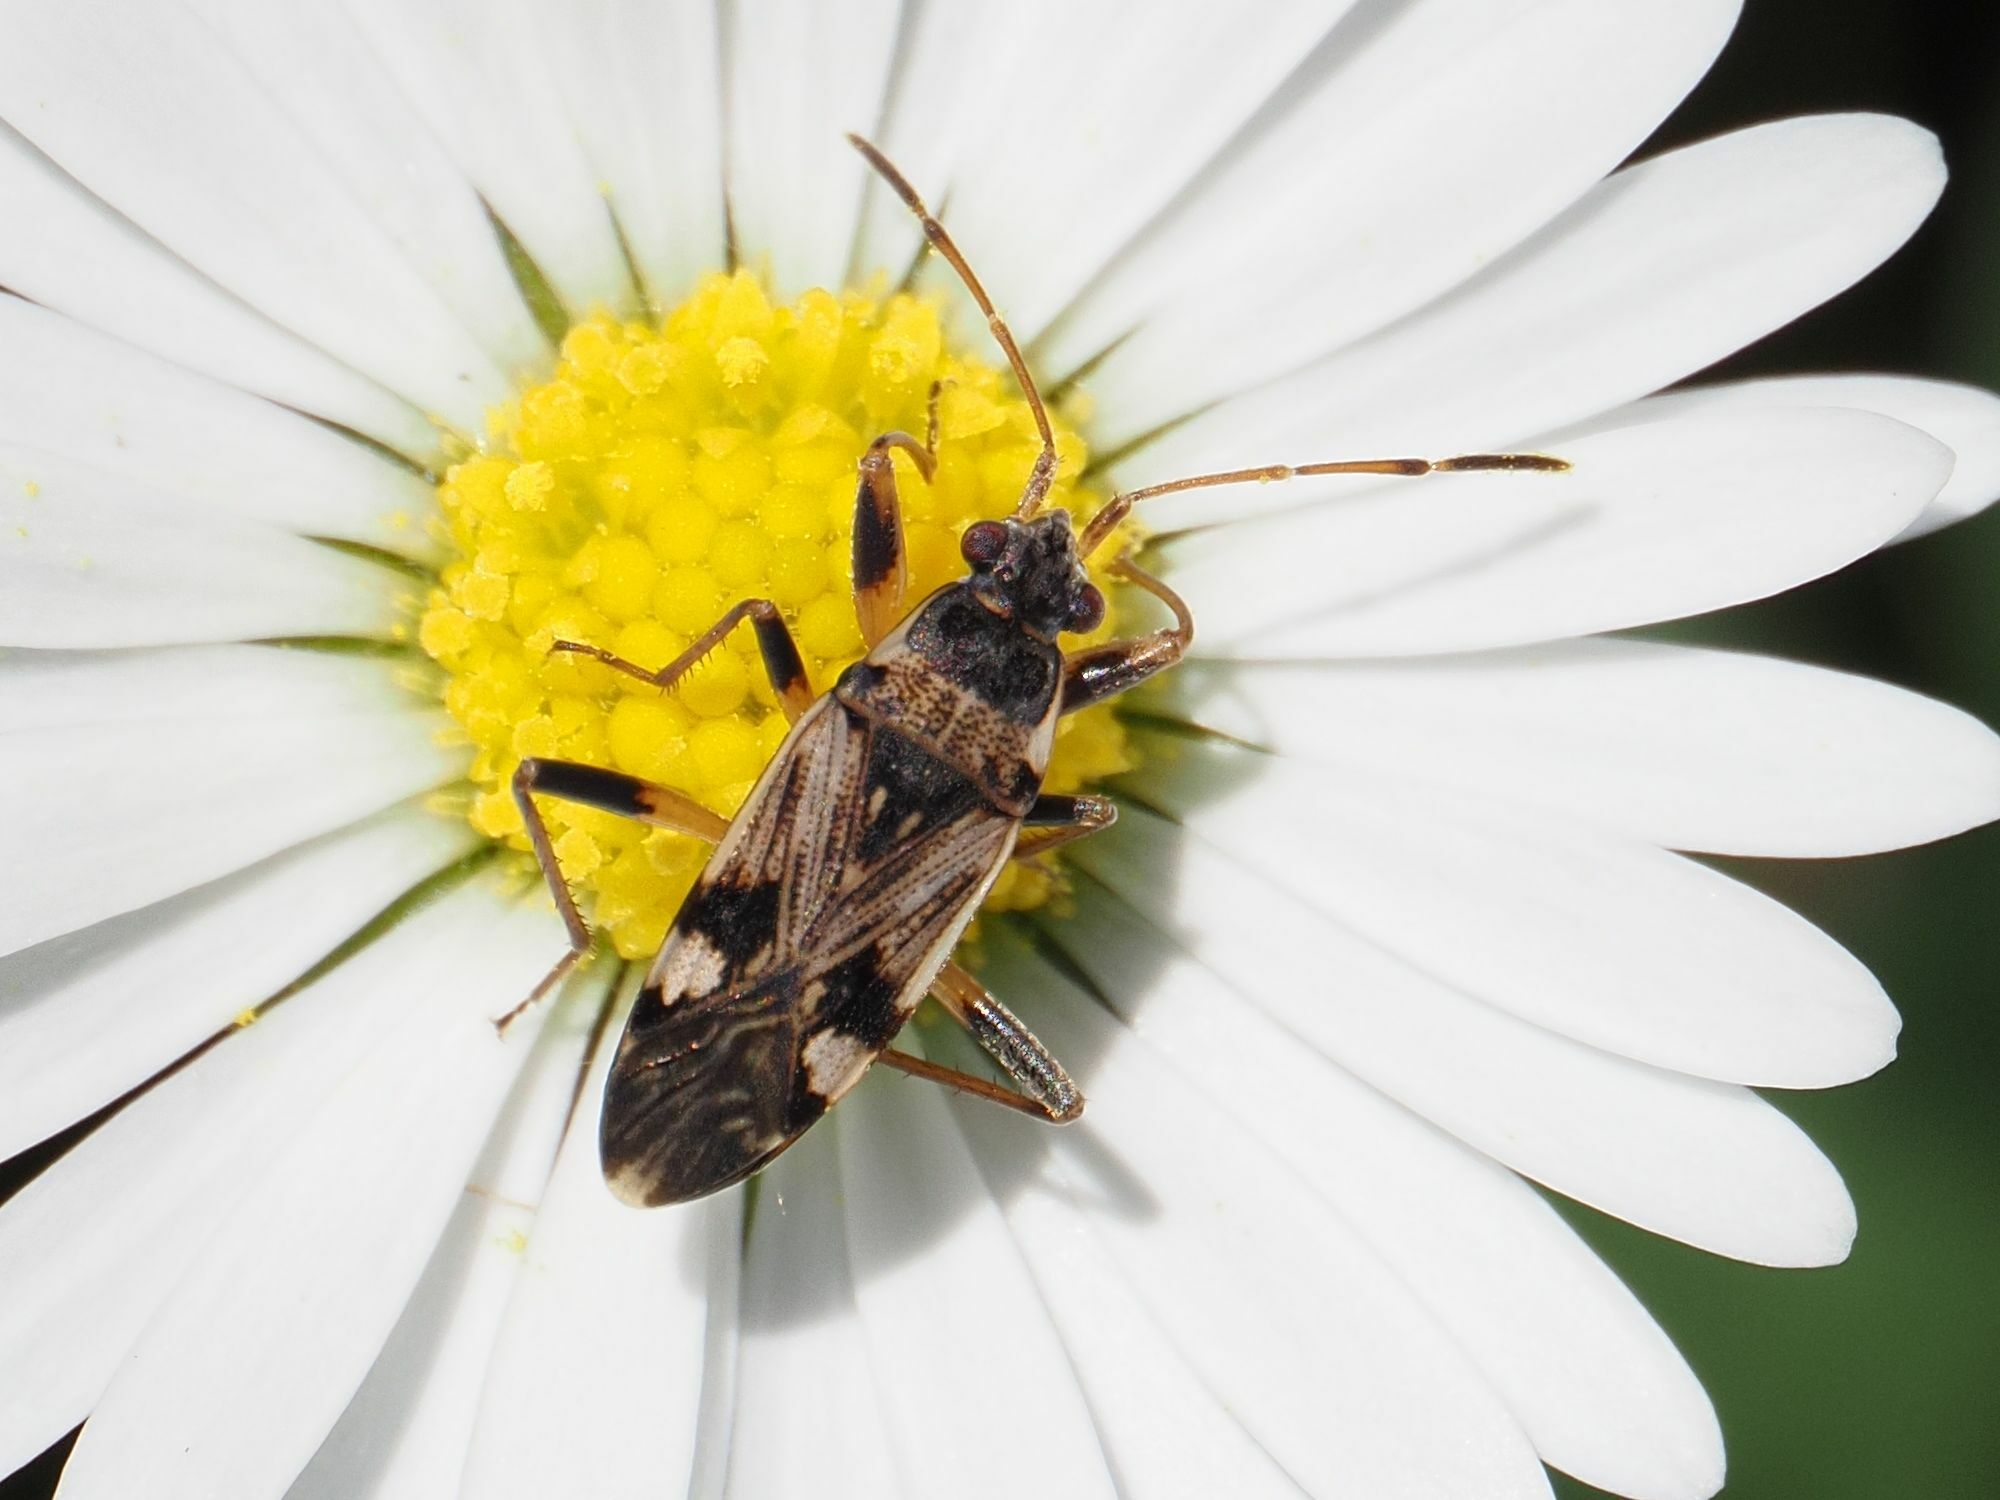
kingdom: Animalia
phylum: Arthropoda
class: Insecta
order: Hemiptera
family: Rhyparochromidae
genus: Beosus
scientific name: Beosus maritimus
